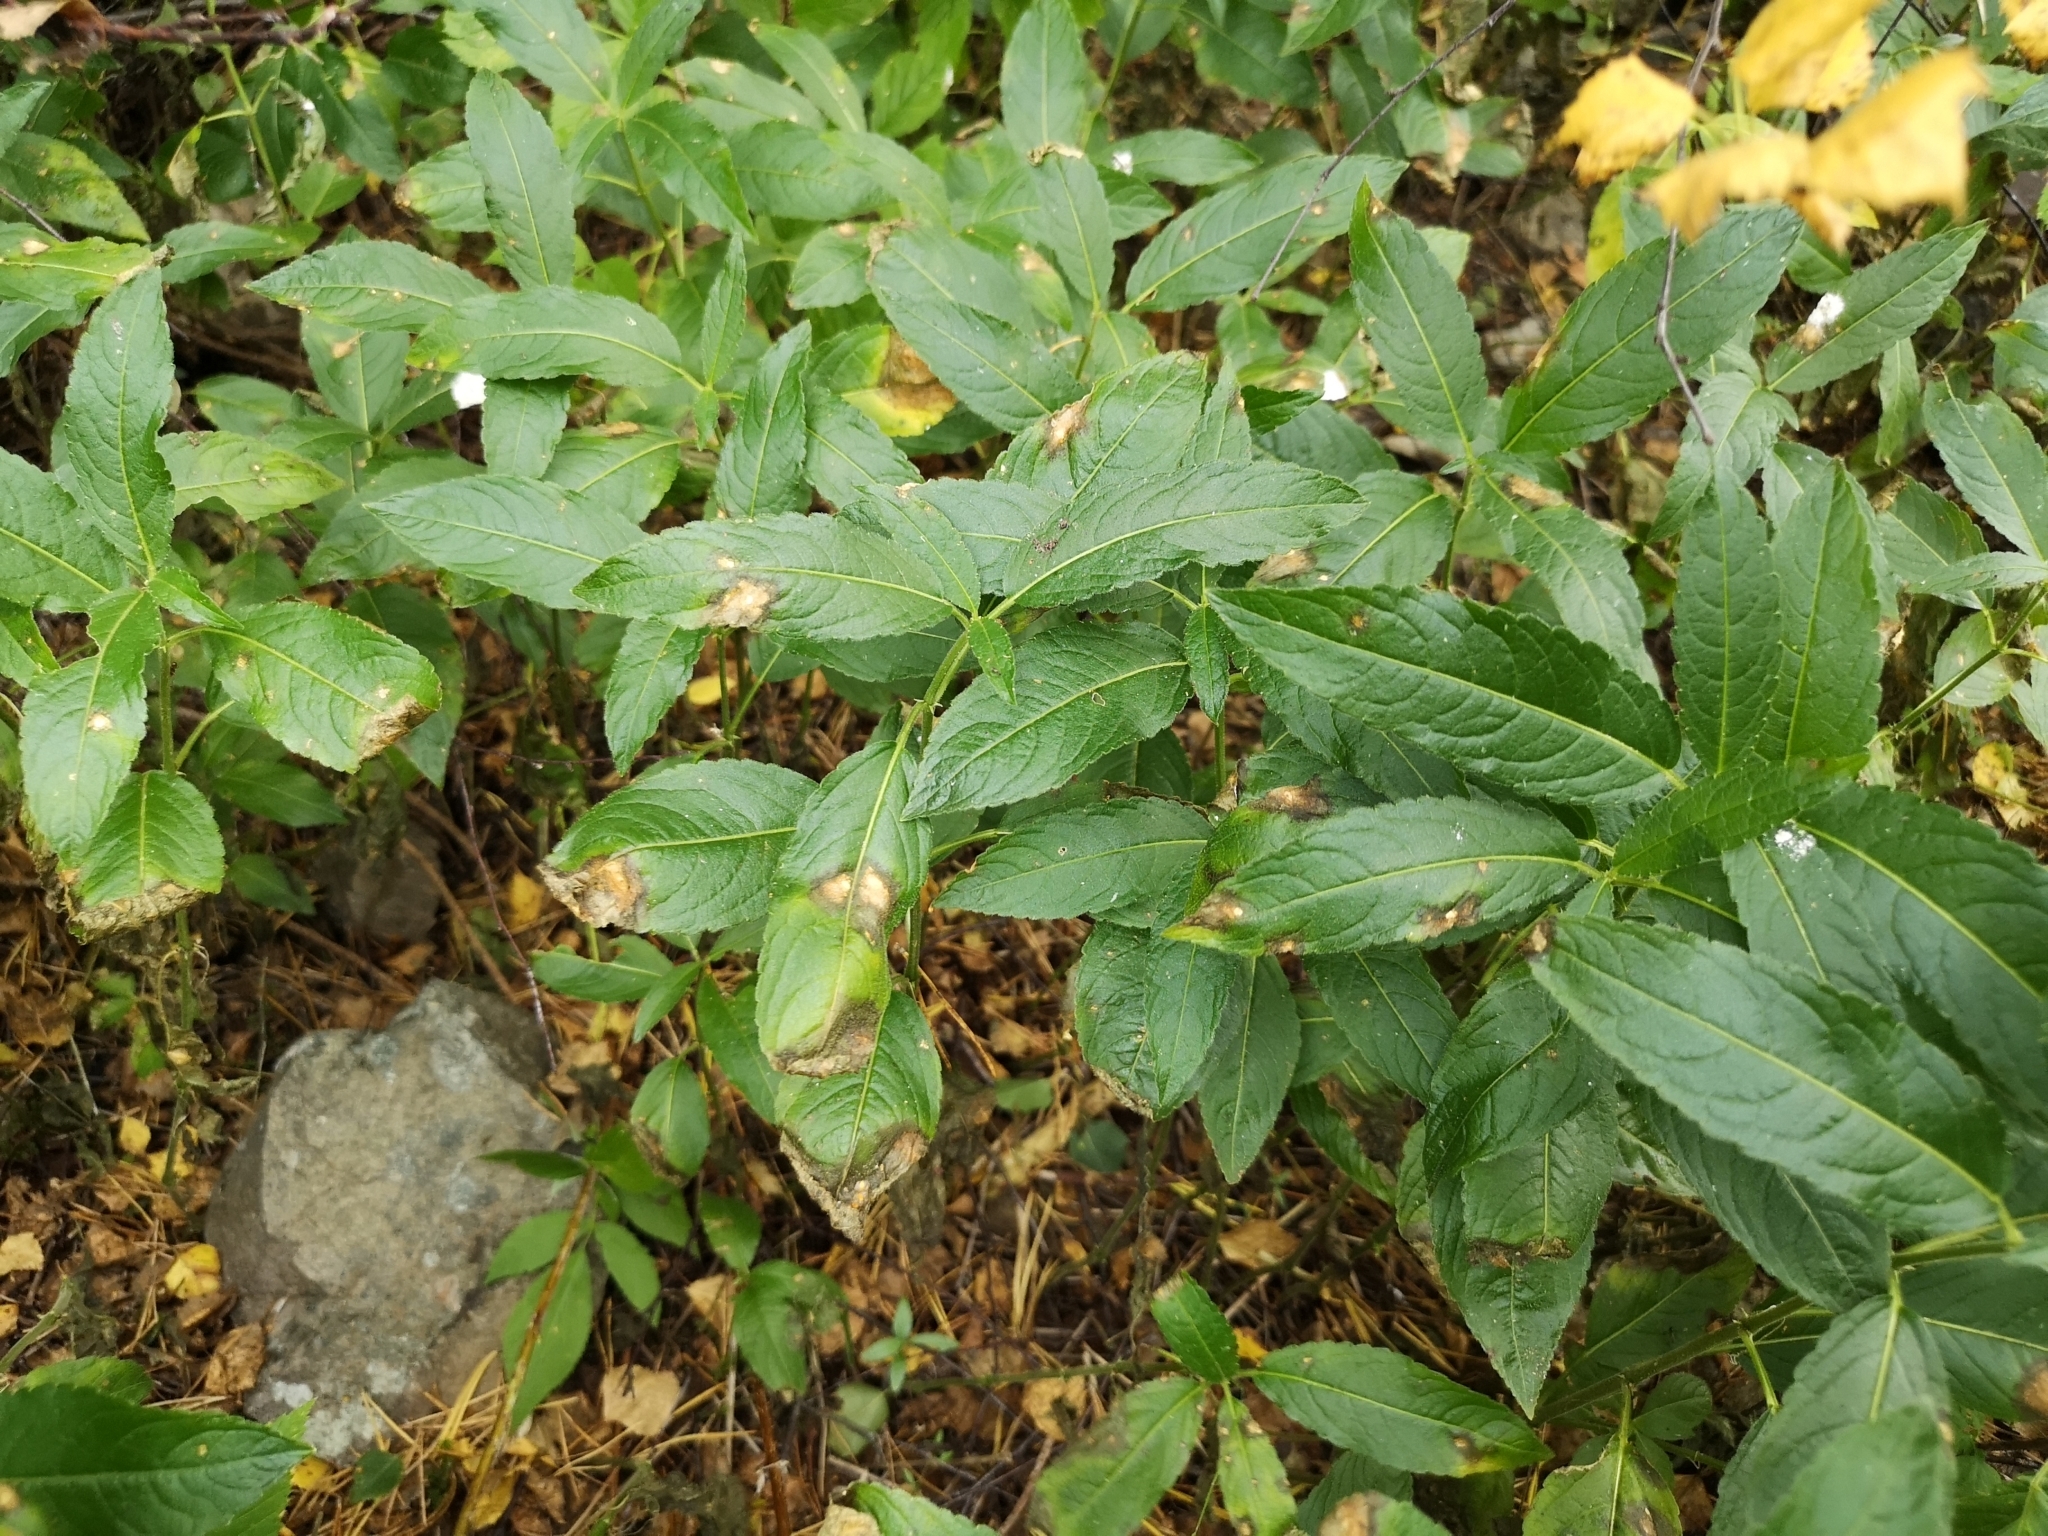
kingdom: Plantae
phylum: Tracheophyta
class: Magnoliopsida
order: Malpighiales
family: Euphorbiaceae
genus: Mercurialis
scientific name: Mercurialis perennis
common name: Dog mercury
